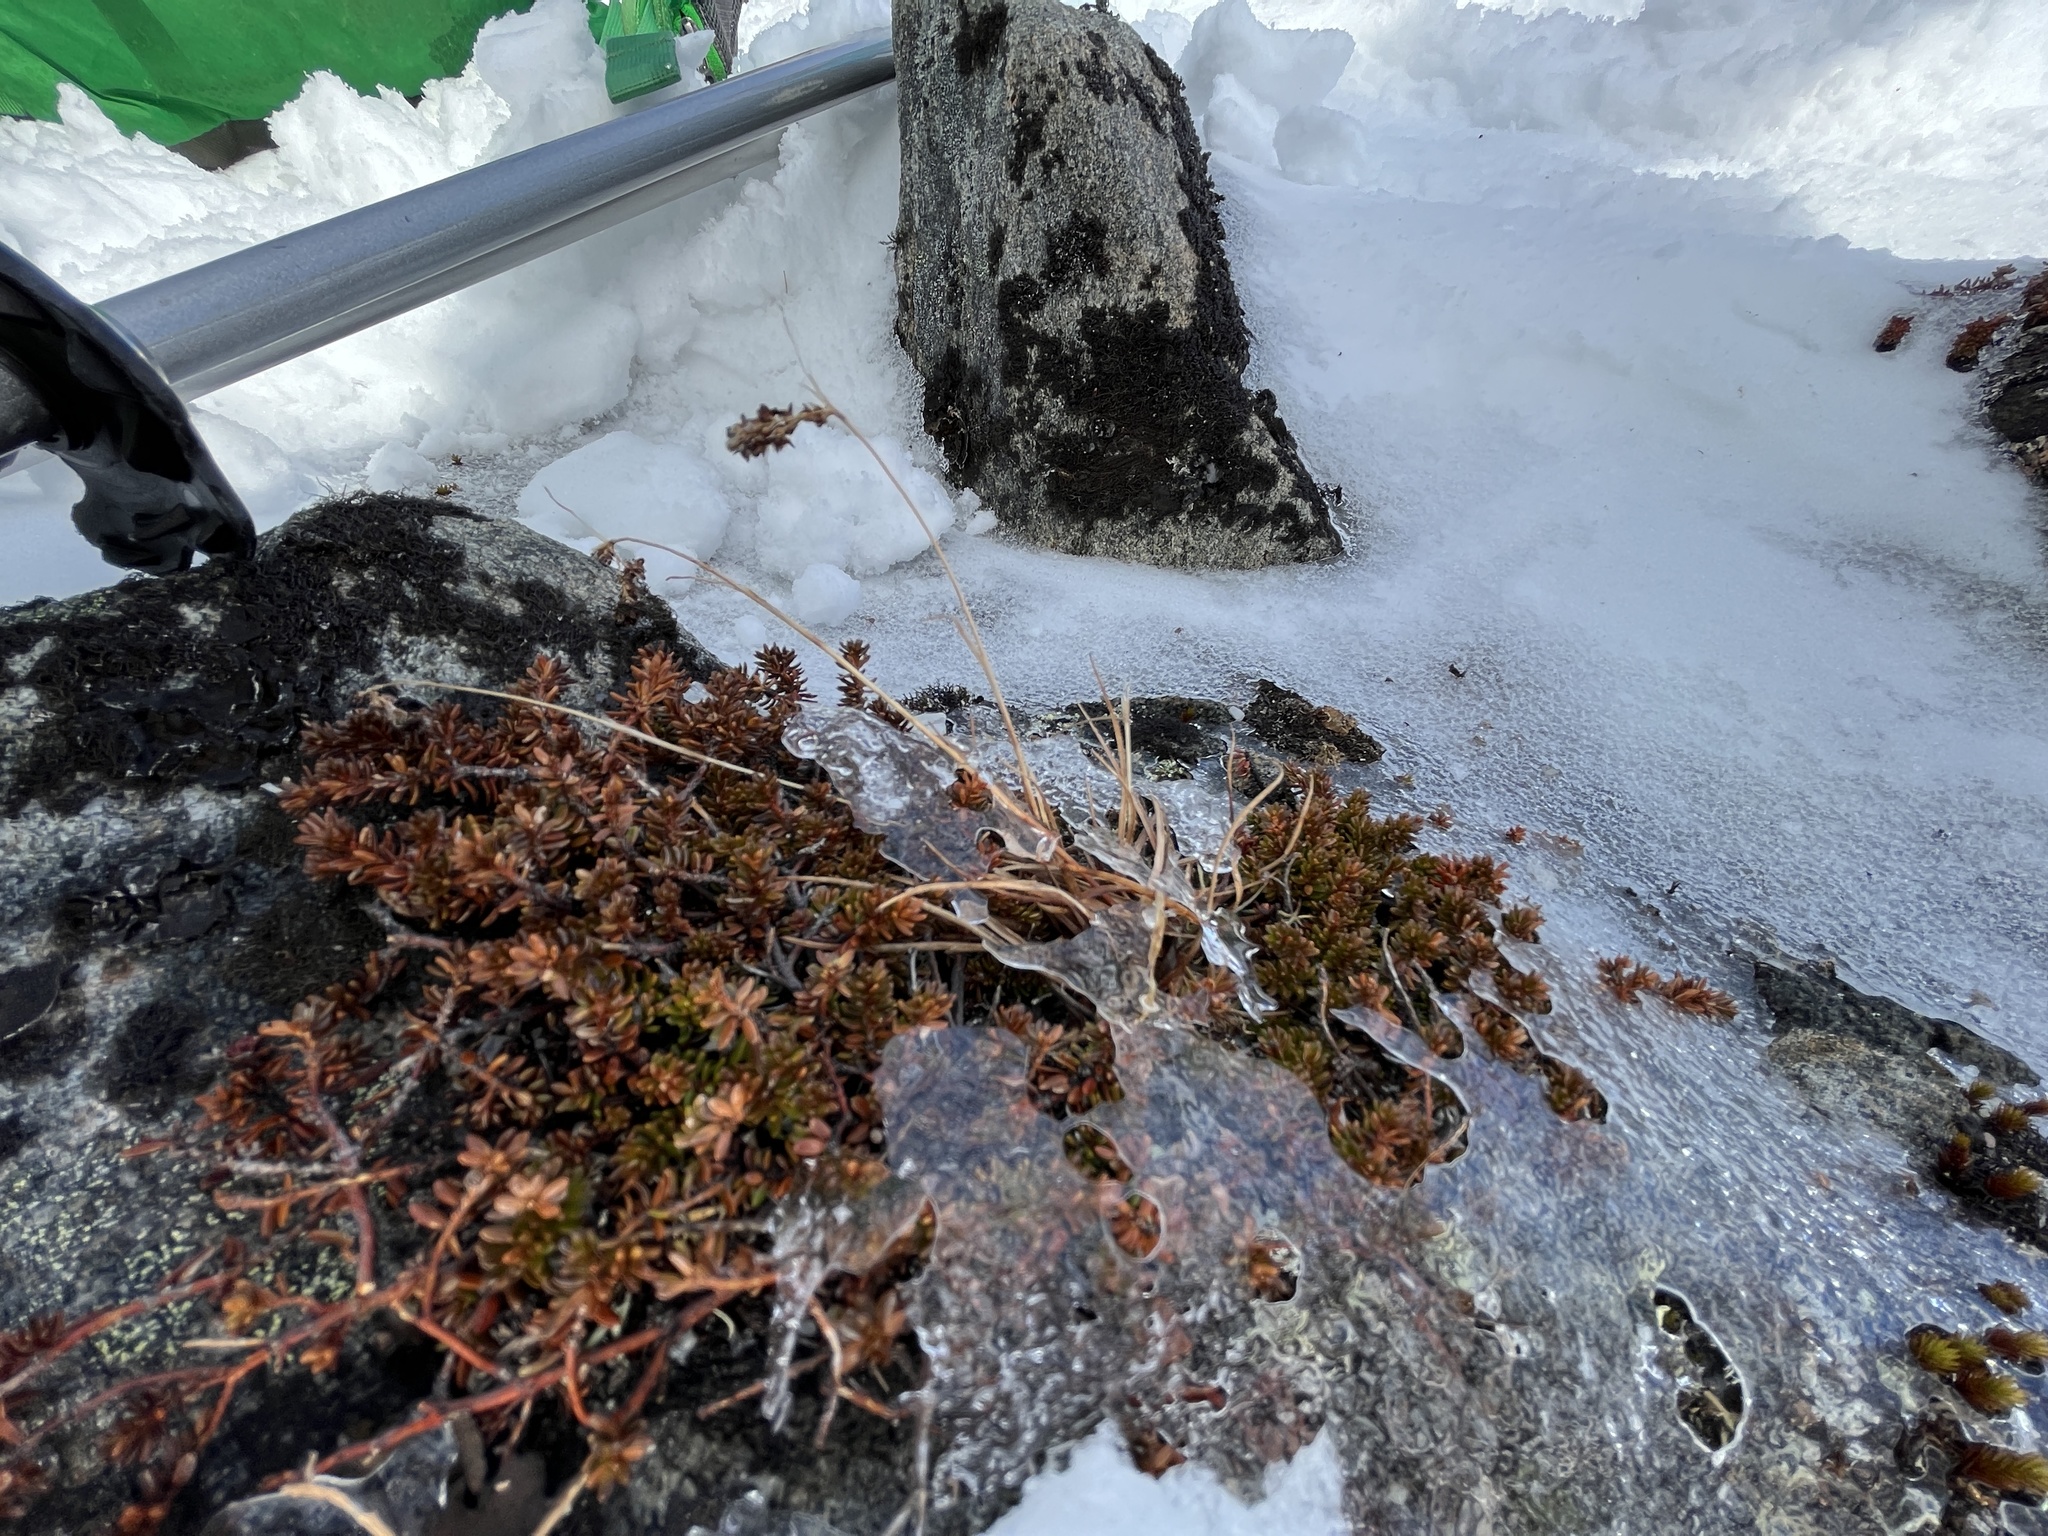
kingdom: Plantae
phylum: Tracheophyta
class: Liliopsida
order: Poales
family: Juncaceae
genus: Luzula
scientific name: Luzula spicata
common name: Spiked wood-rush
